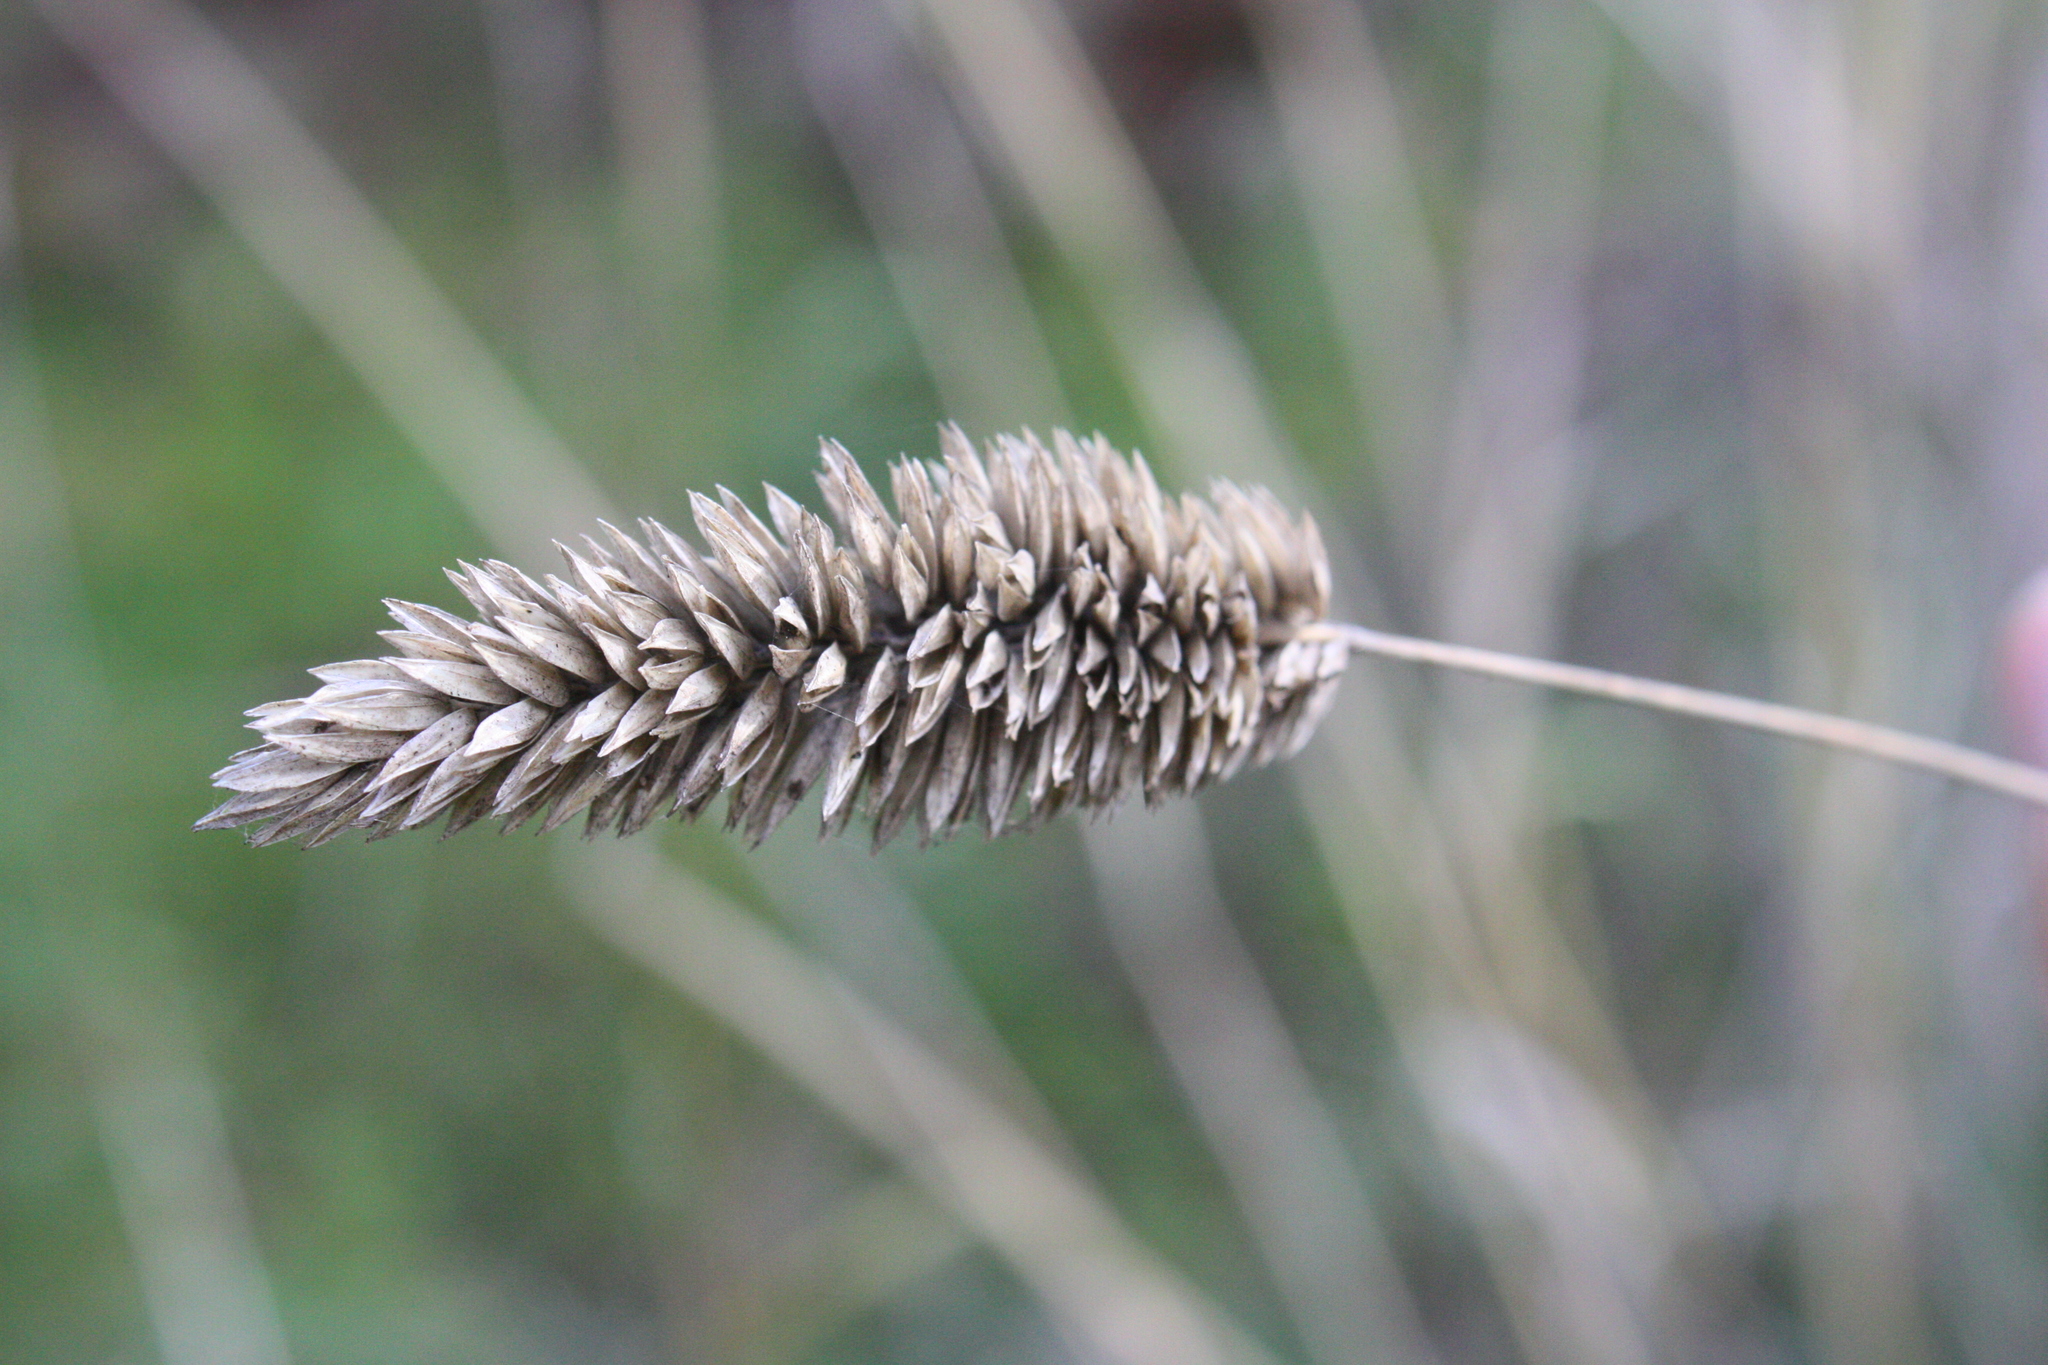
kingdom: Plantae
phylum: Tracheophyta
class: Liliopsida
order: Poales
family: Poaceae
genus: Phalaris
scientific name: Phalaris aquatica
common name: Bulbous canary-grass
